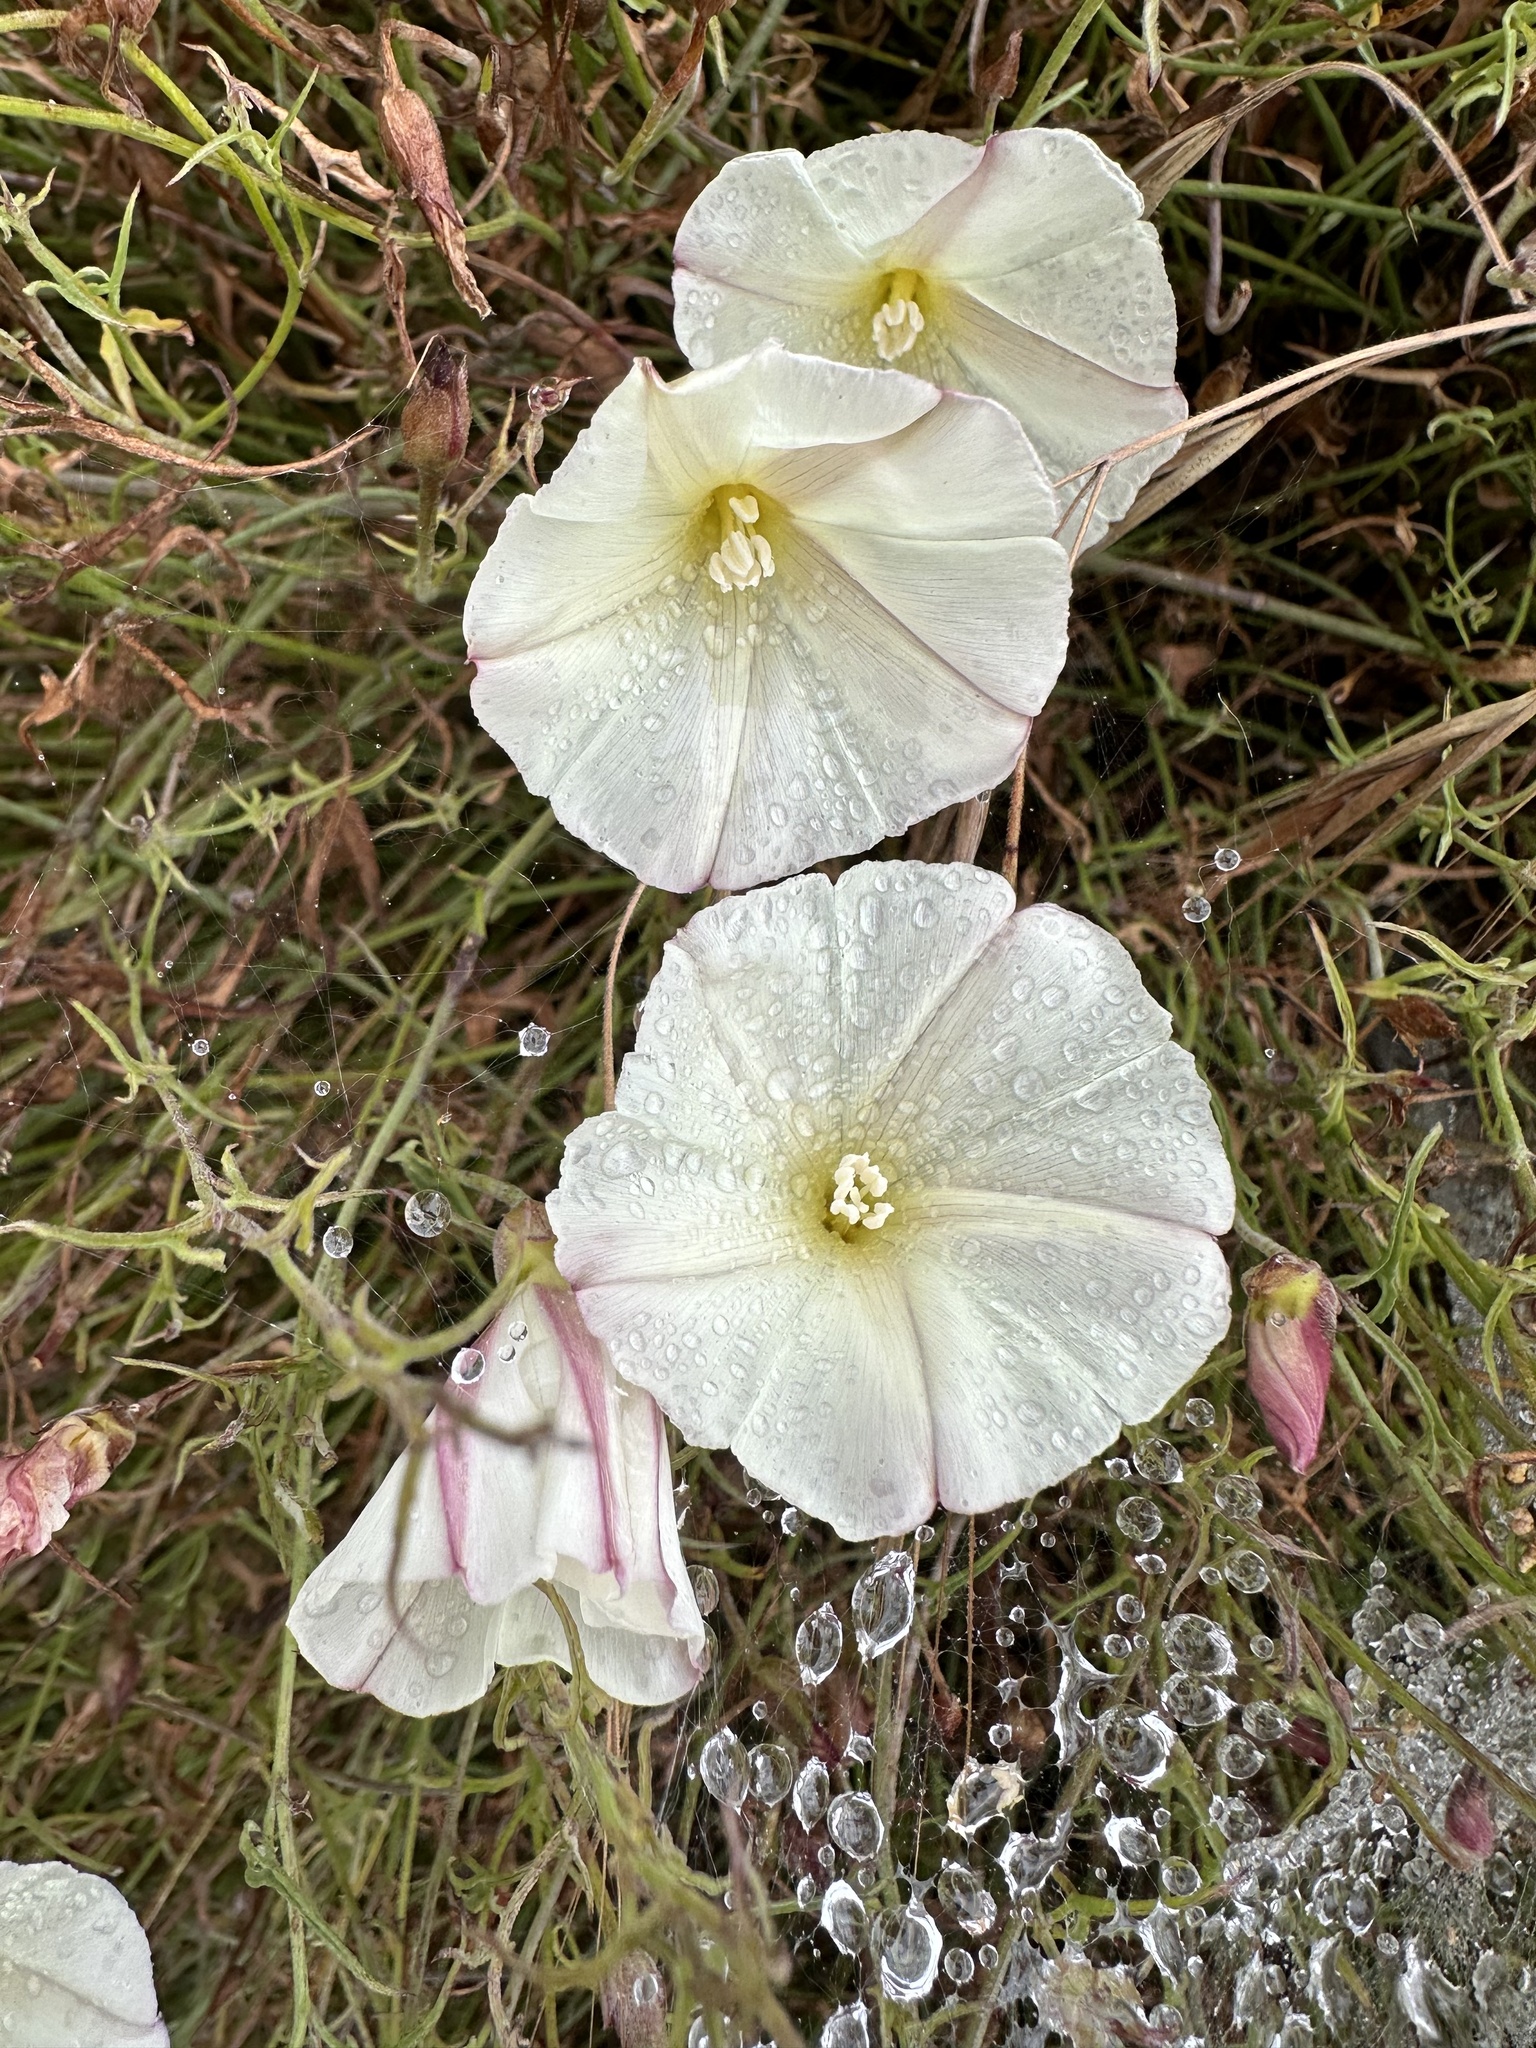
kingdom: Plantae
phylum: Tracheophyta
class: Magnoliopsida
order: Solanales
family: Convolvulaceae
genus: Calystegia
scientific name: Calystegia macrostegia
